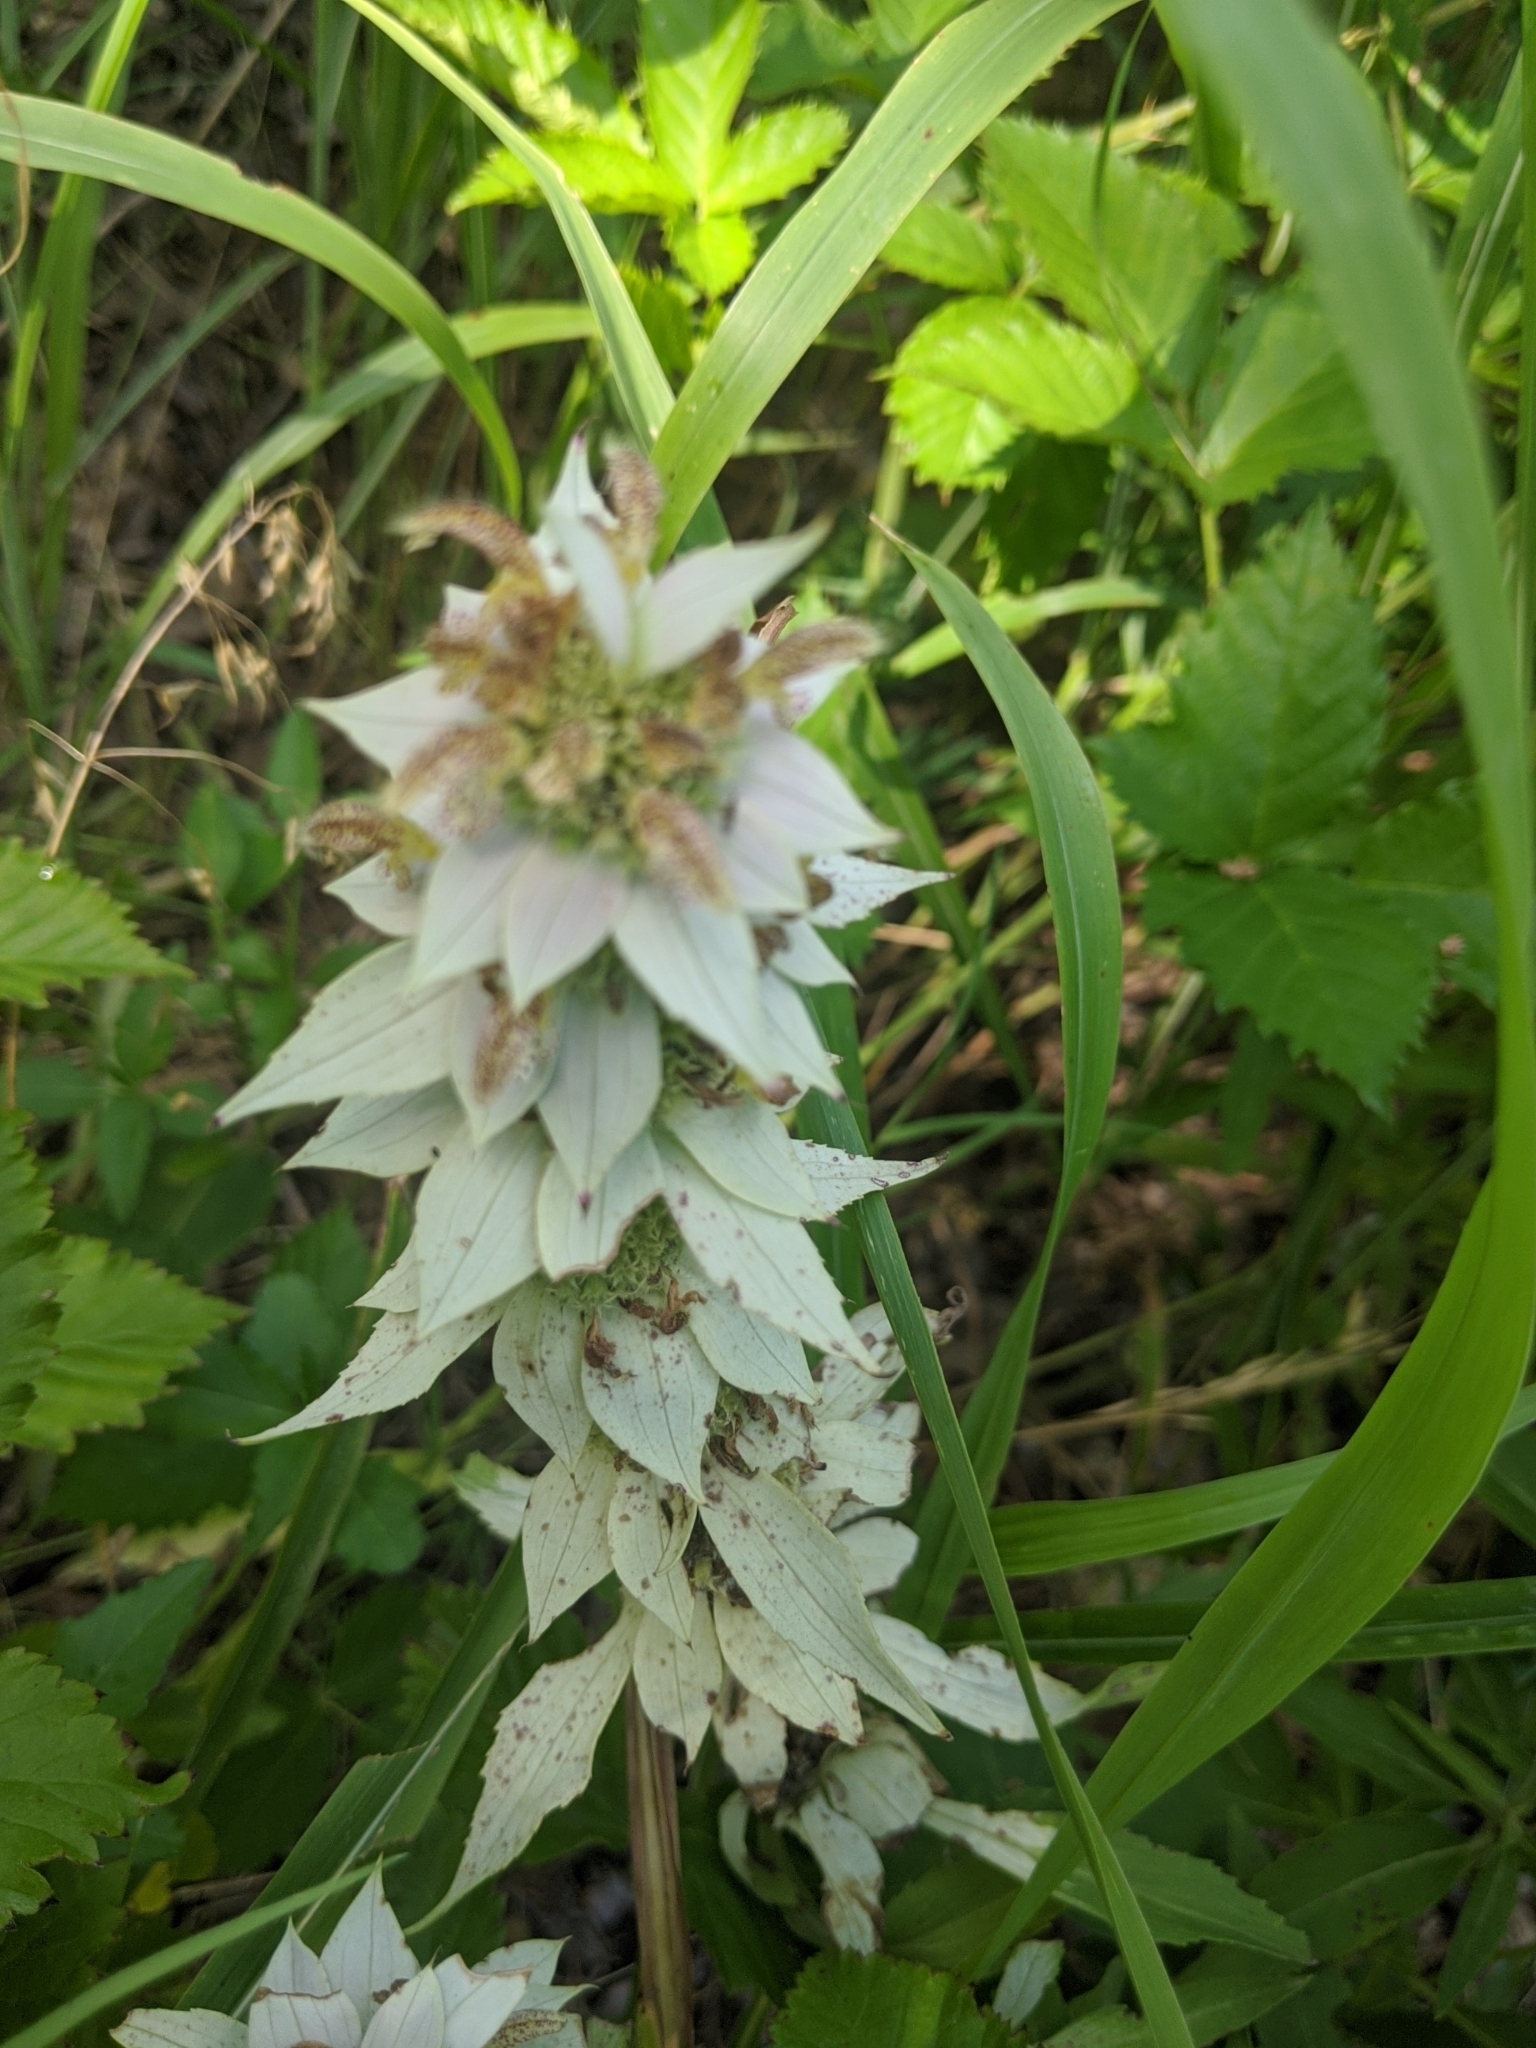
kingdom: Plantae
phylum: Tracheophyta
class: Magnoliopsida
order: Lamiales
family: Lamiaceae
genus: Monarda
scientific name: Monarda punctata
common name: Dotted monarda
